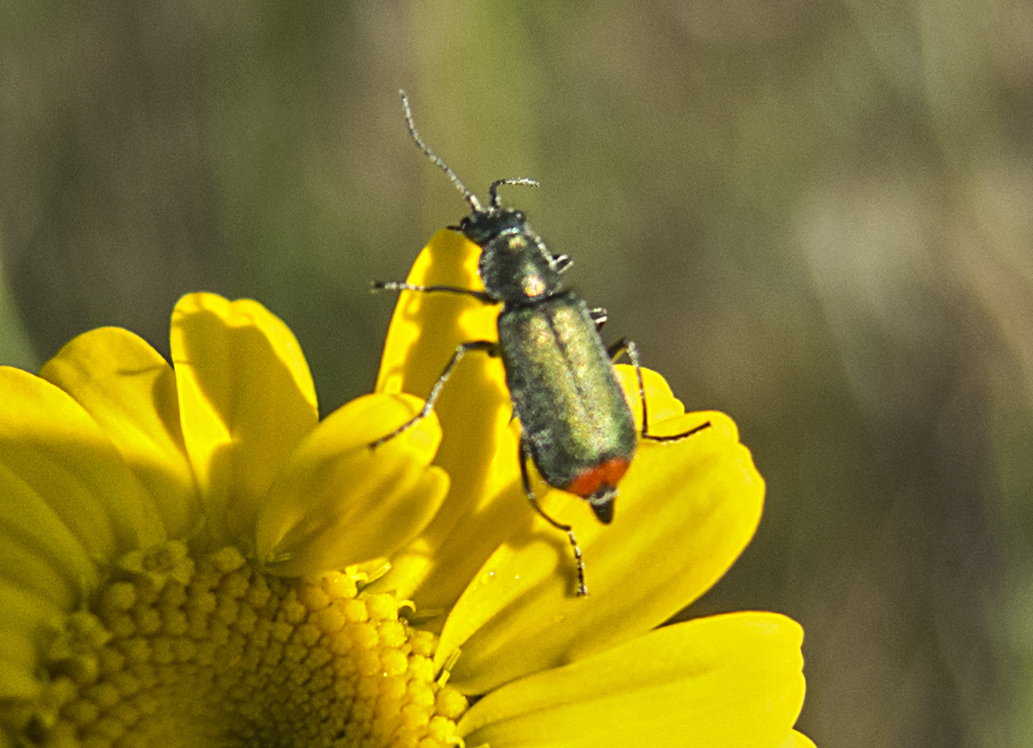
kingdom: Animalia
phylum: Arthropoda
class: Insecta
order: Coleoptera
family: Melyridae
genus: Malachius
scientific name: Malachius bipustulatus
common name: Malachite beetle
